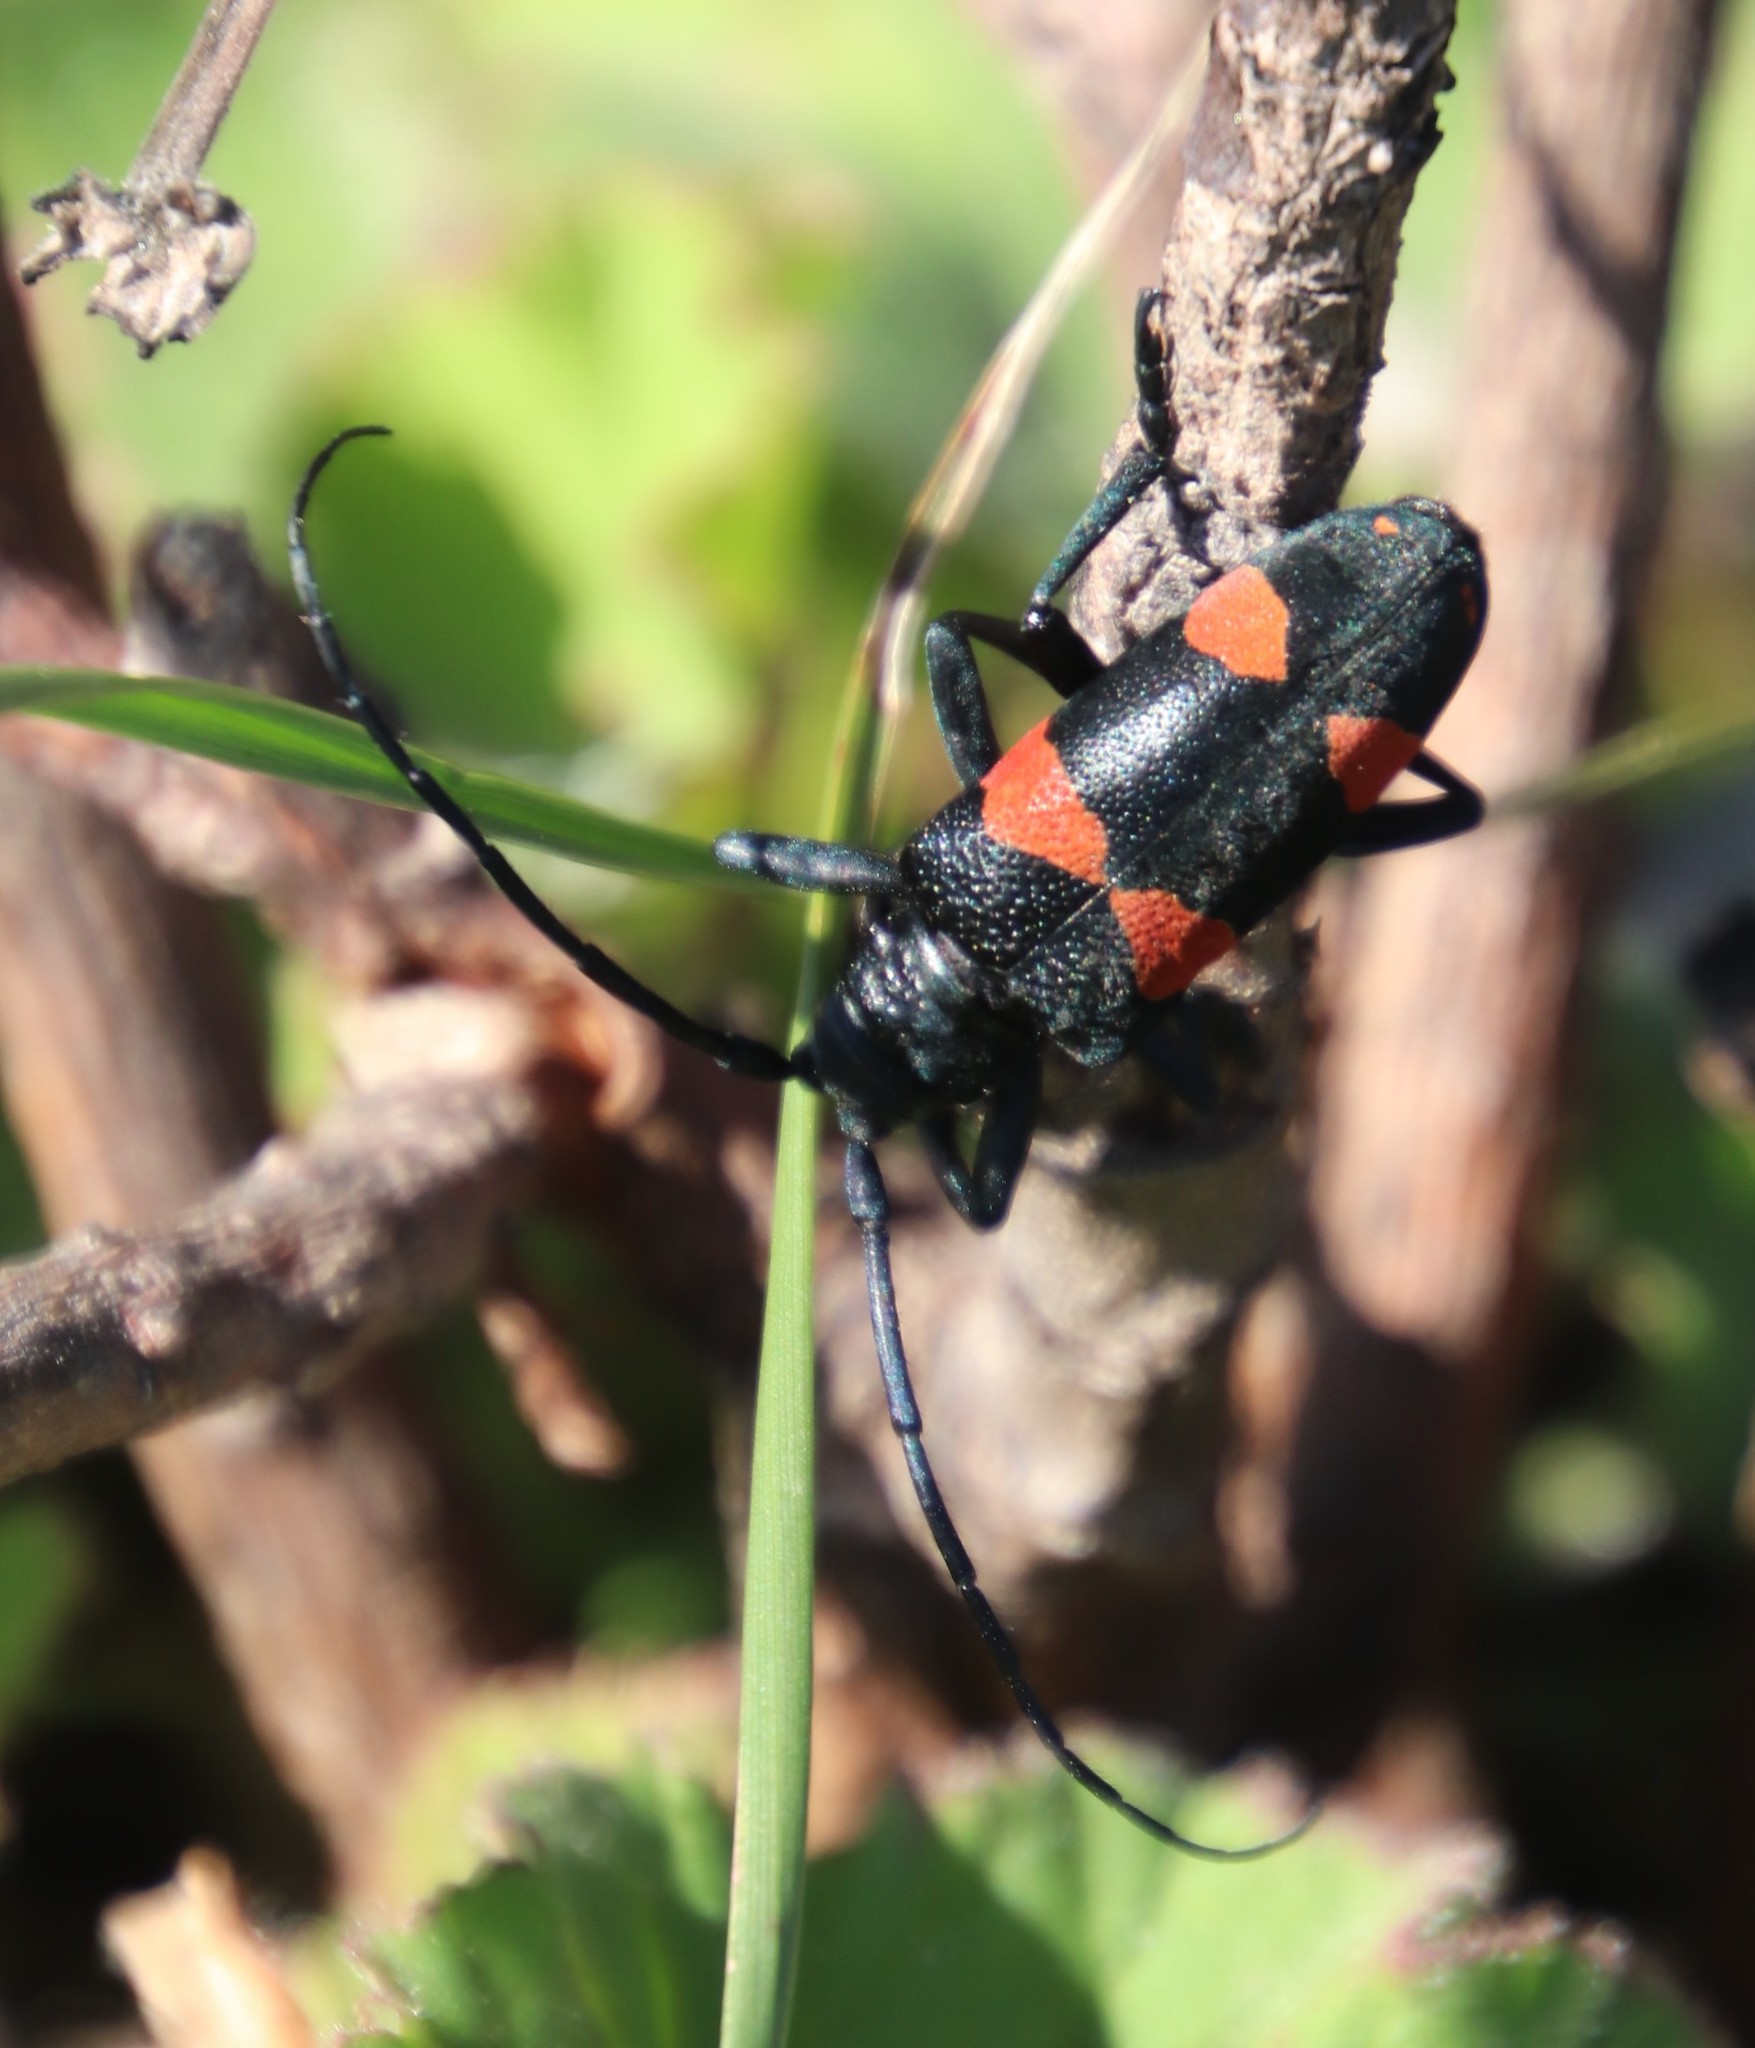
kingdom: Animalia
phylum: Arthropoda
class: Insecta
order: Coleoptera
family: Cerambycidae
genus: Ceroplesis
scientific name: Ceroplesis aethiops
